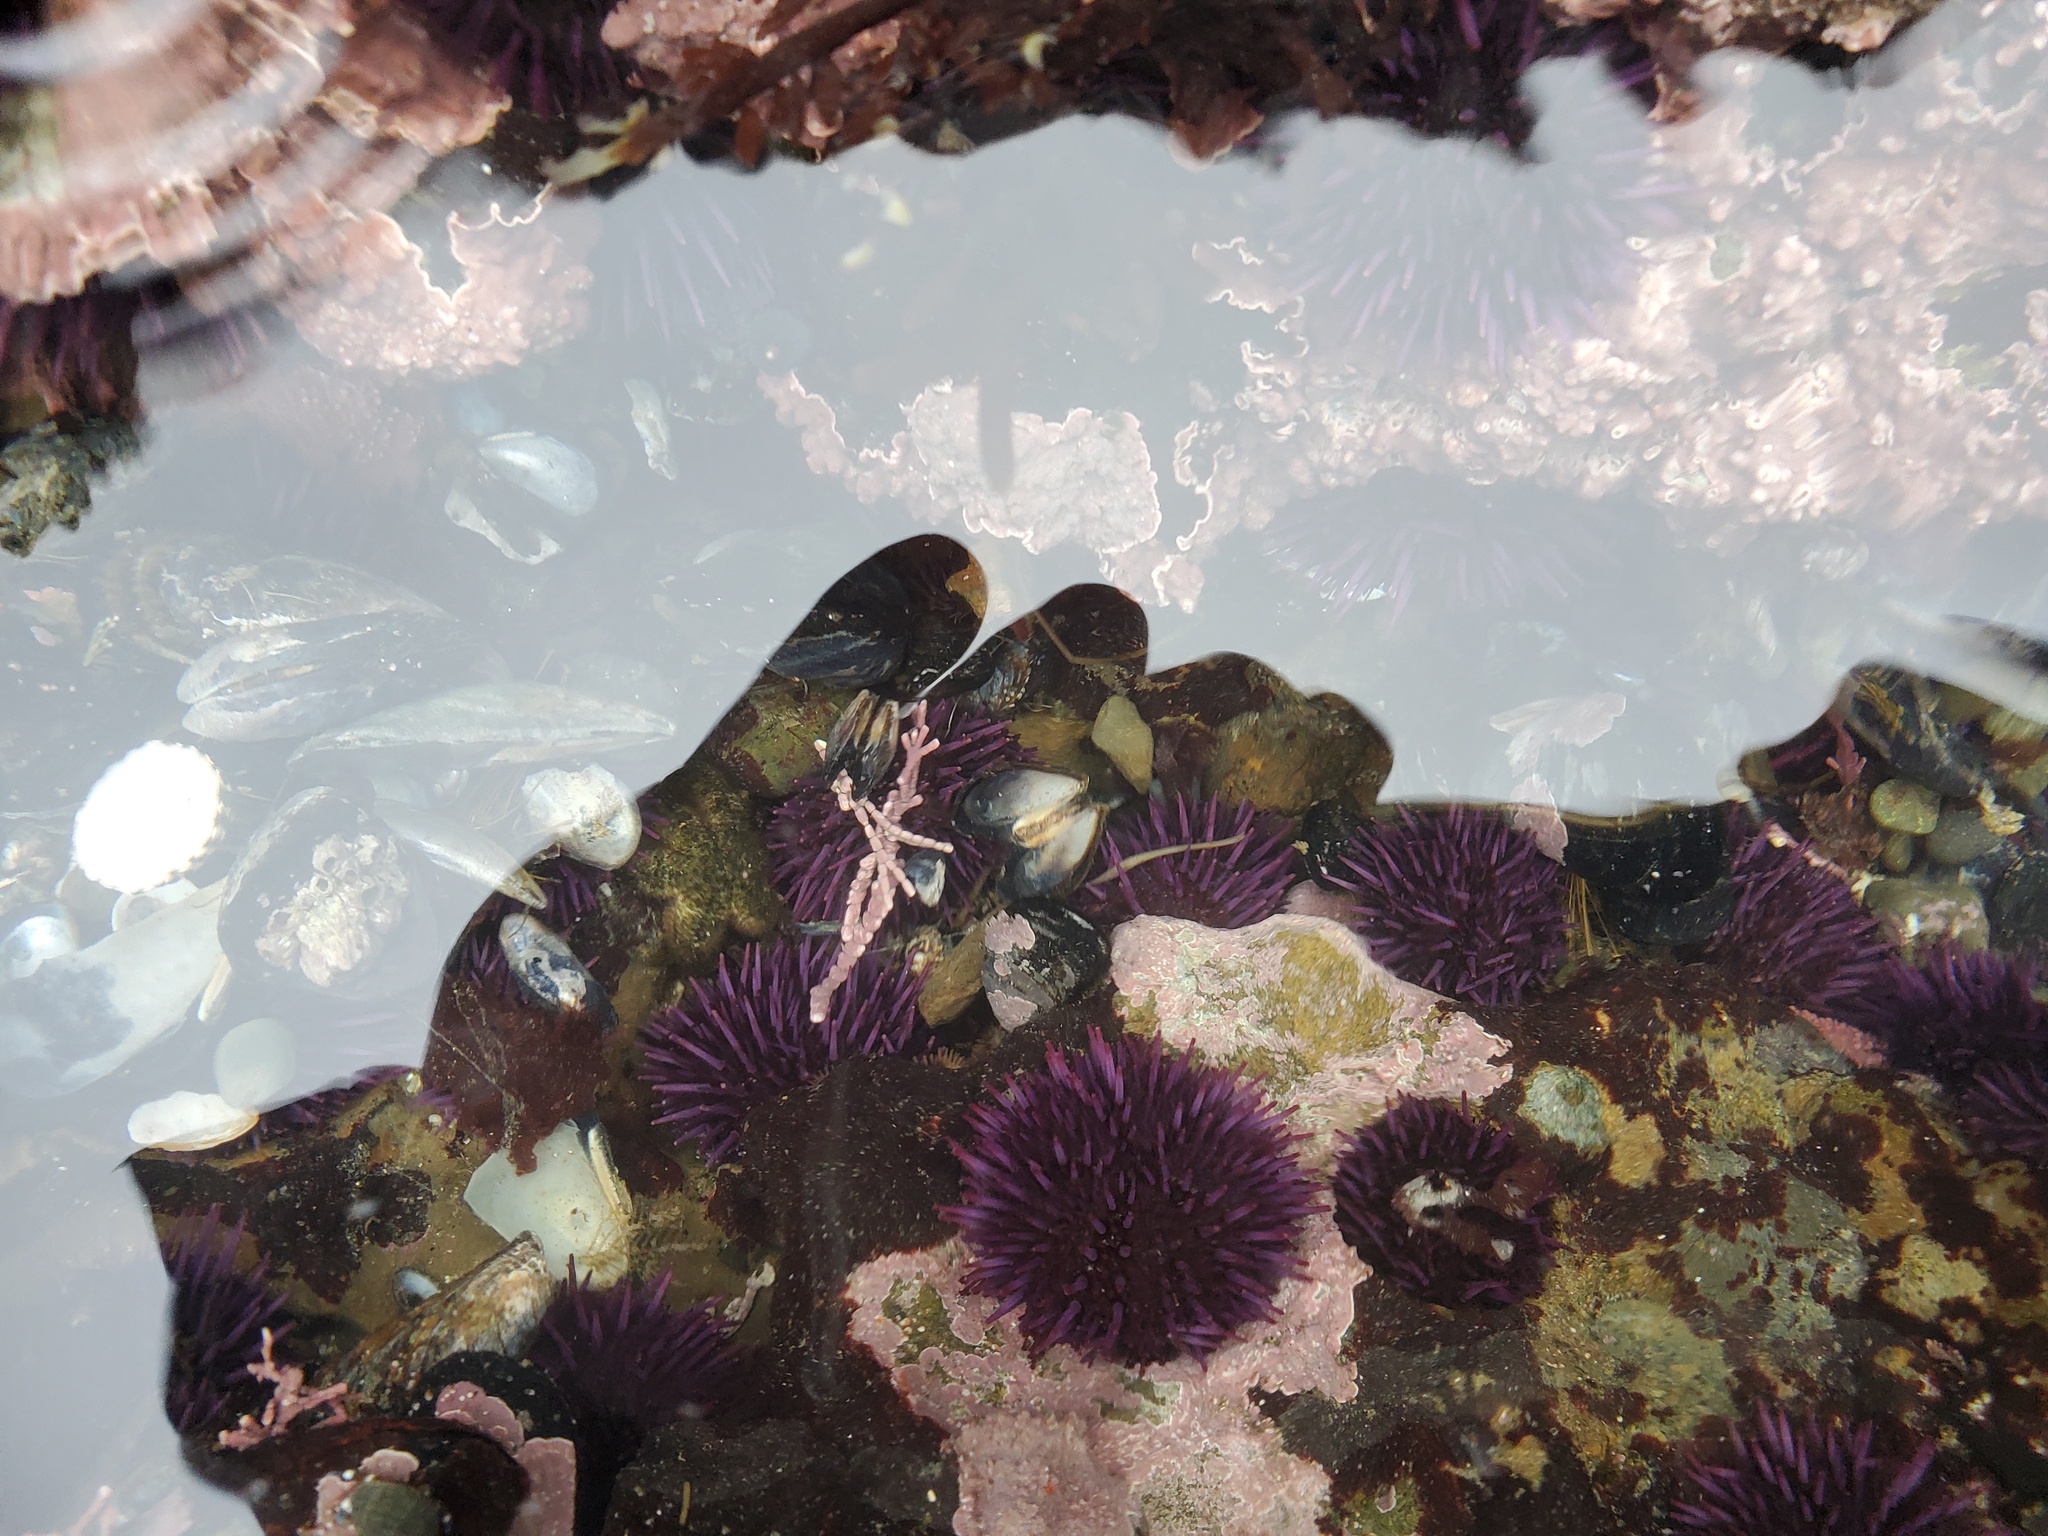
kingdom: Animalia
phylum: Echinodermata
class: Echinoidea
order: Camarodonta
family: Strongylocentrotidae
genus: Strongylocentrotus
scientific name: Strongylocentrotus purpuratus
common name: Purple sea urchin
